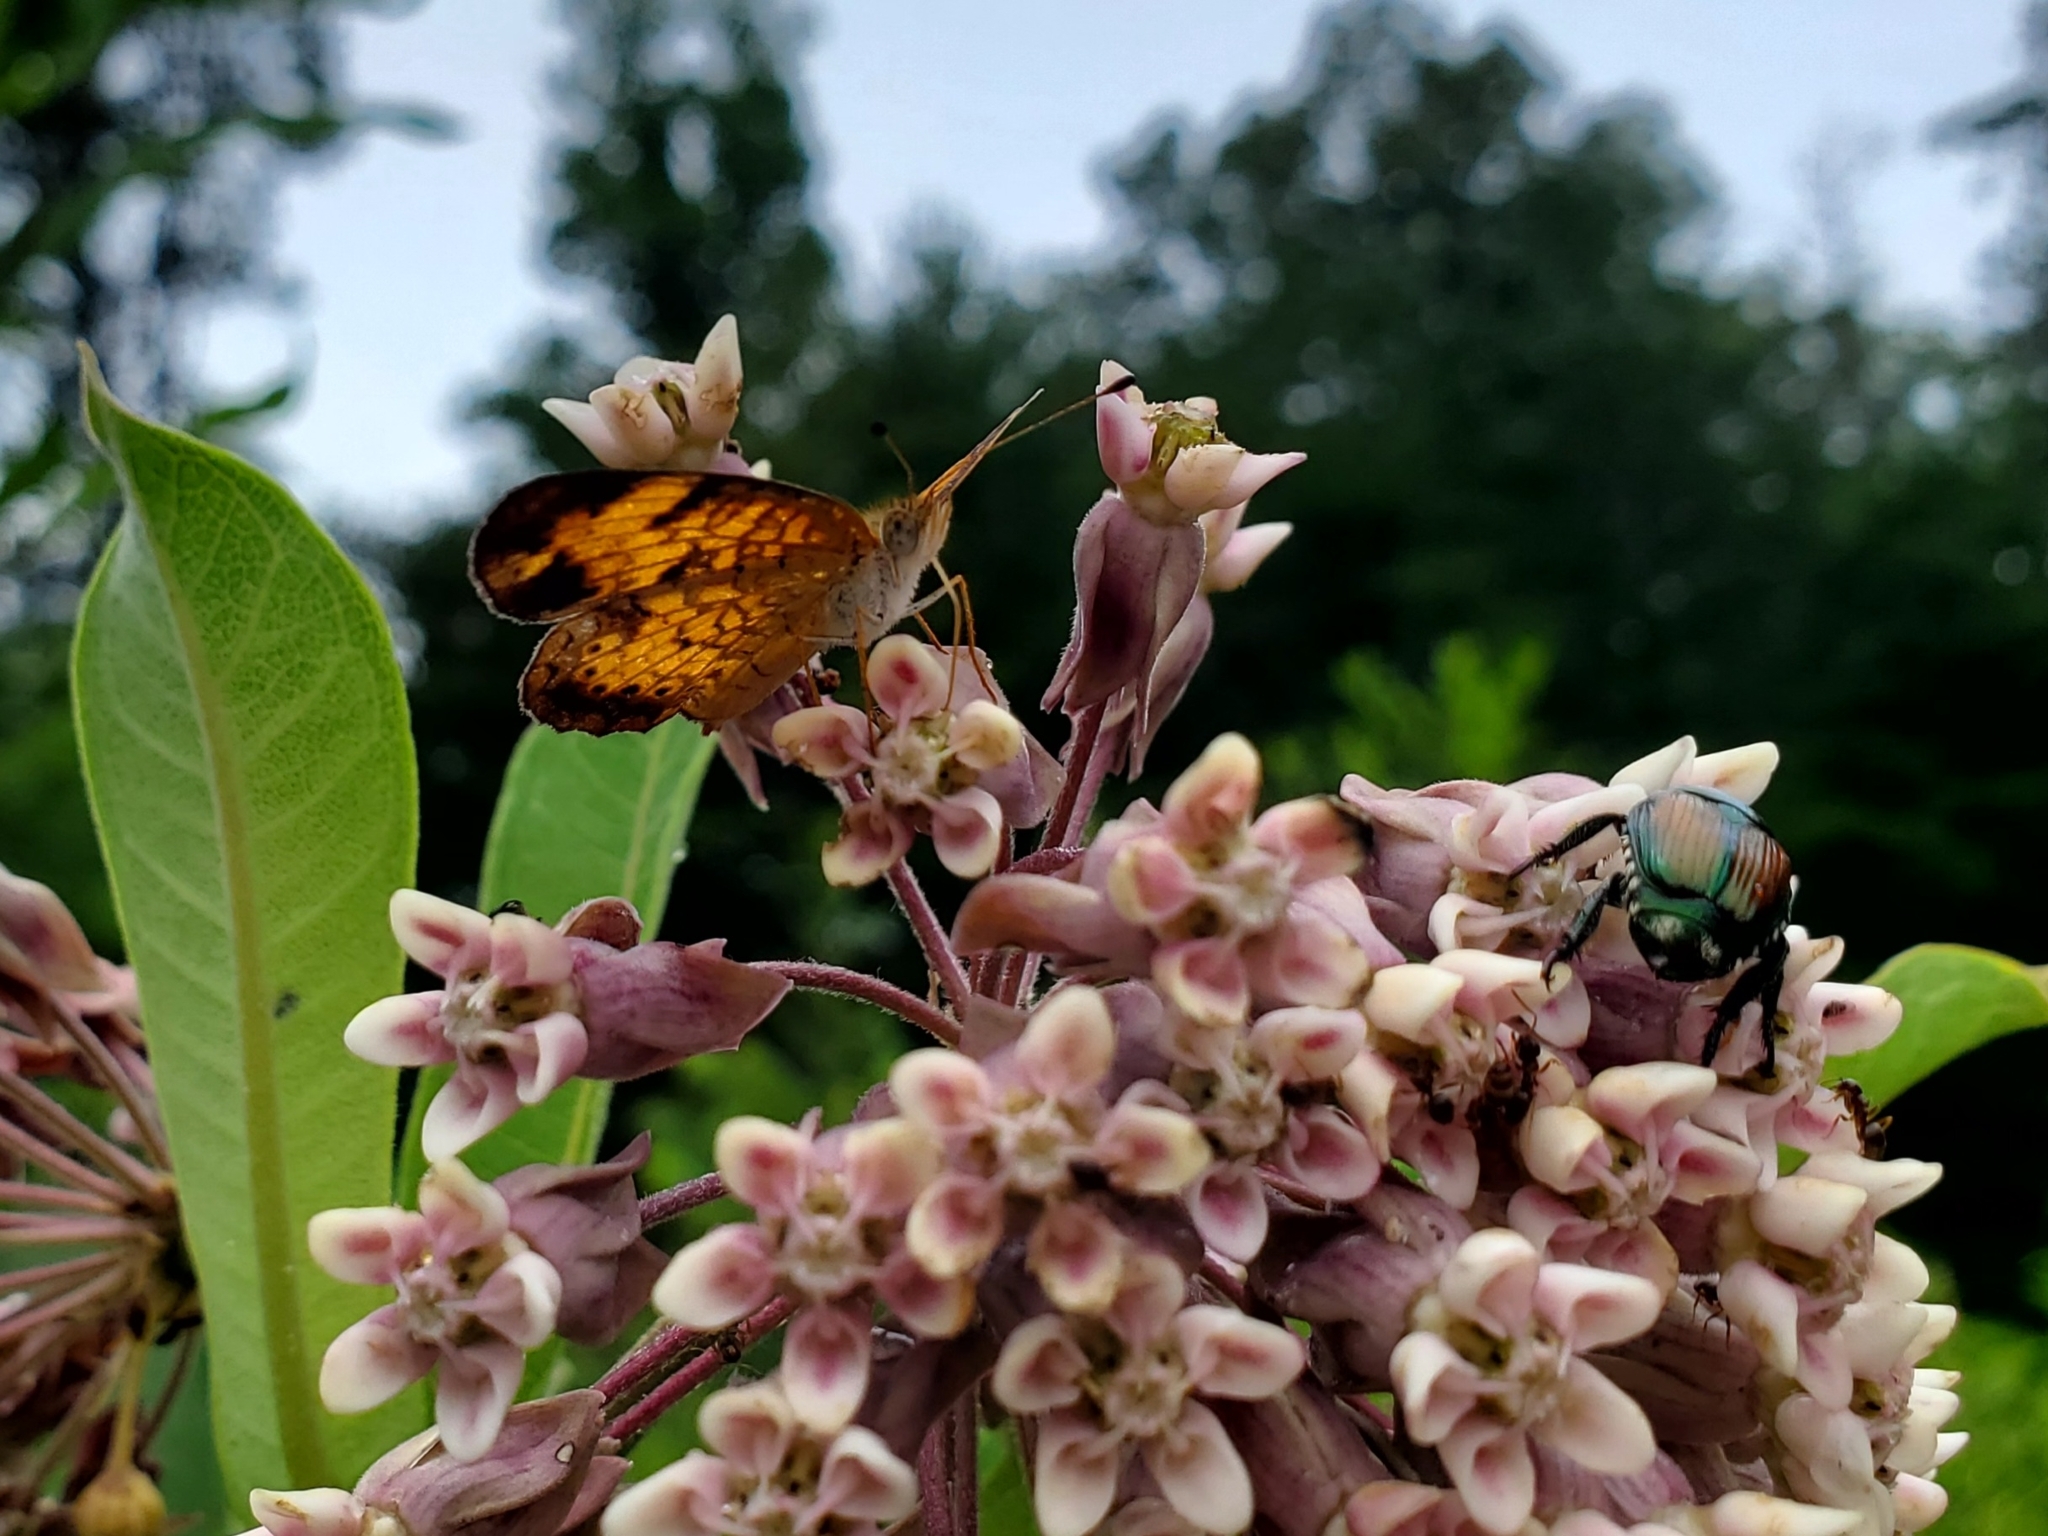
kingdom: Animalia
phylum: Arthropoda
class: Insecta
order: Lepidoptera
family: Nymphalidae
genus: Phyciodes
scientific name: Phyciodes tharos
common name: Pearl crescent
